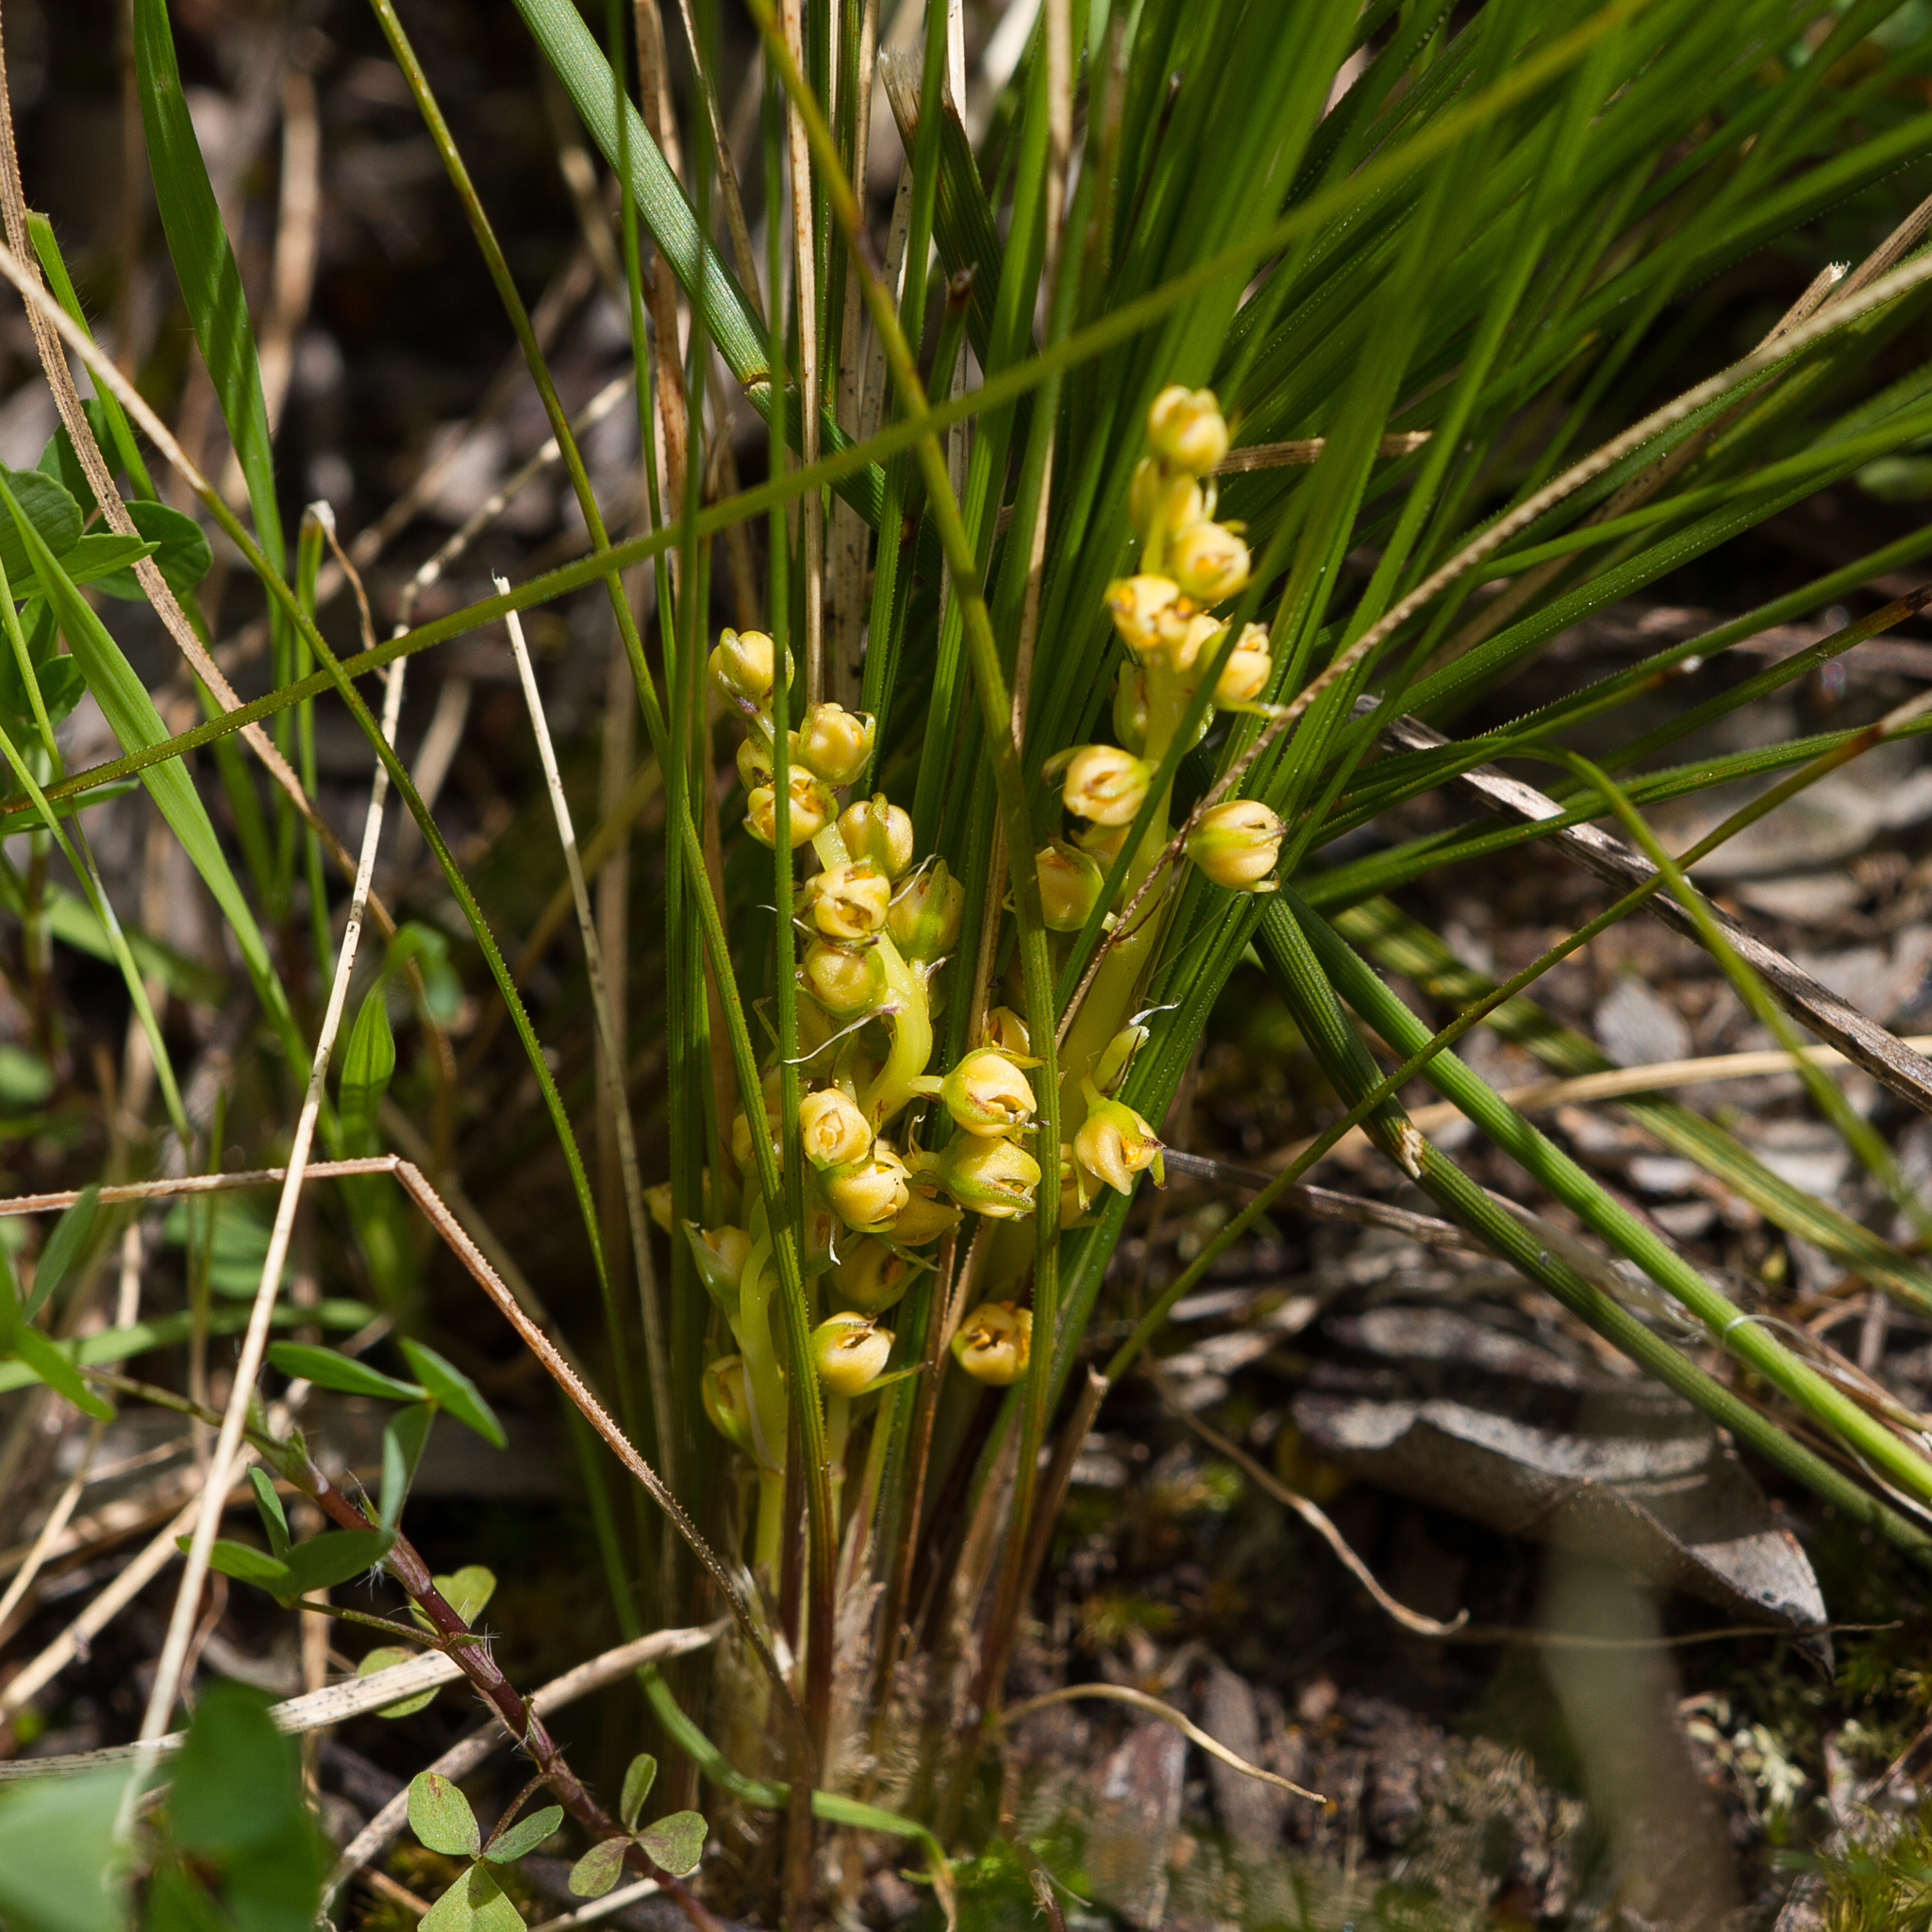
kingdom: Plantae
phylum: Tracheophyta
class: Liliopsida
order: Asparagales
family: Asparagaceae
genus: Lomandra
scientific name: Lomandra fibrata
